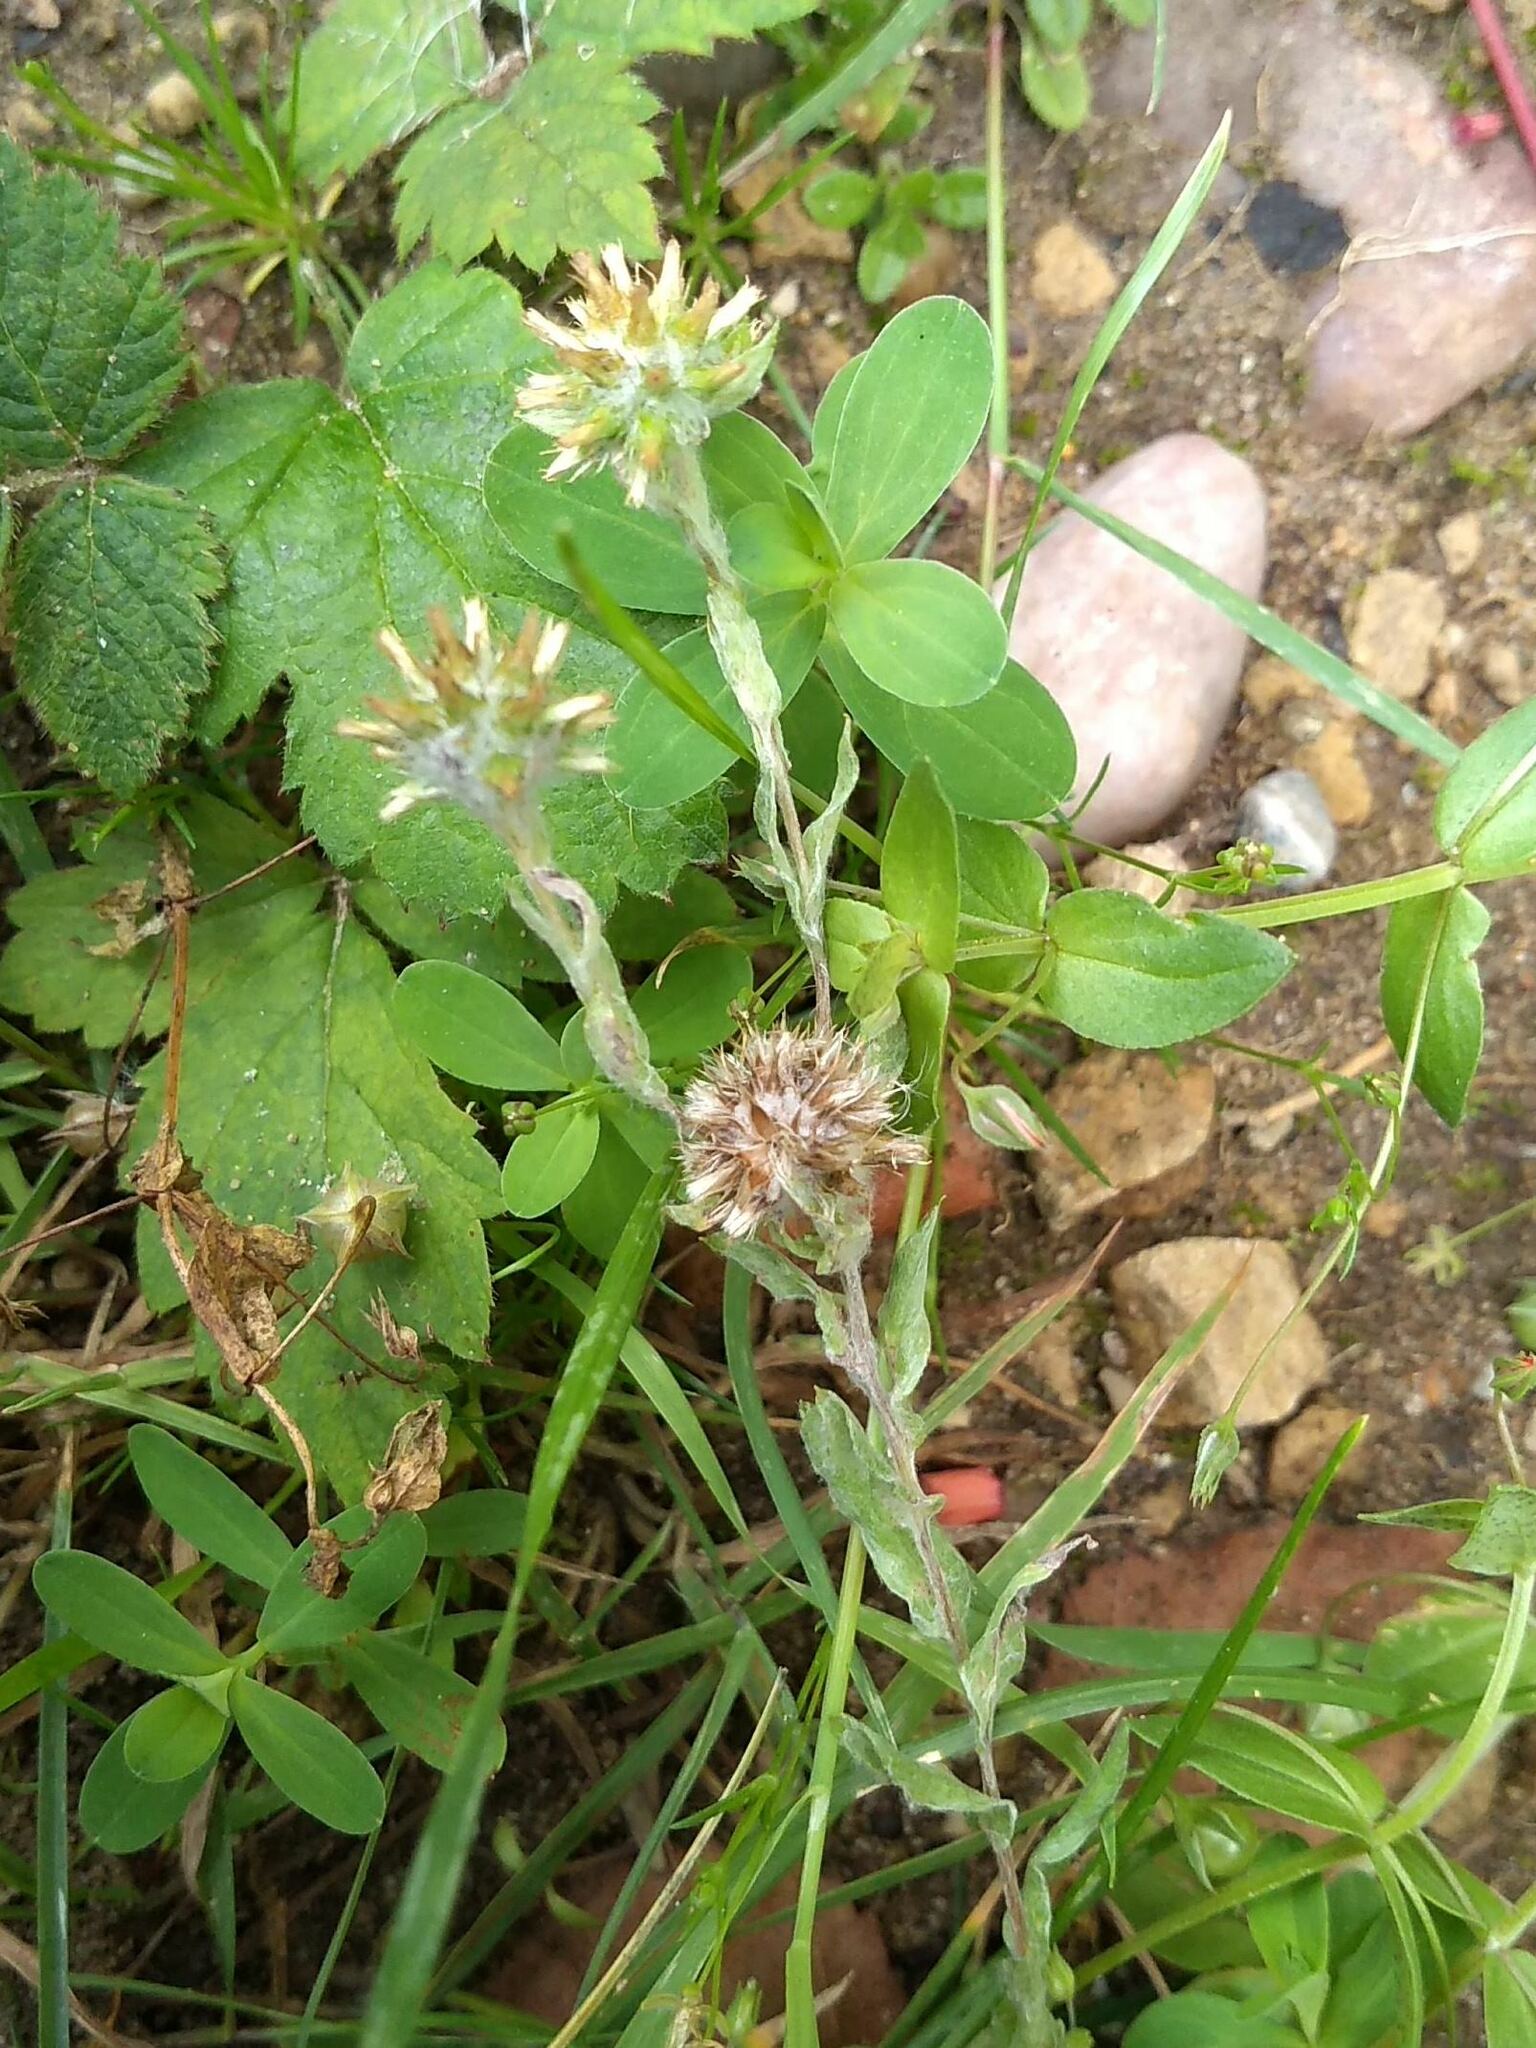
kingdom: Plantae
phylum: Tracheophyta
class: Magnoliopsida
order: Asterales
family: Asteraceae
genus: Filago
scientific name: Filago germanica
